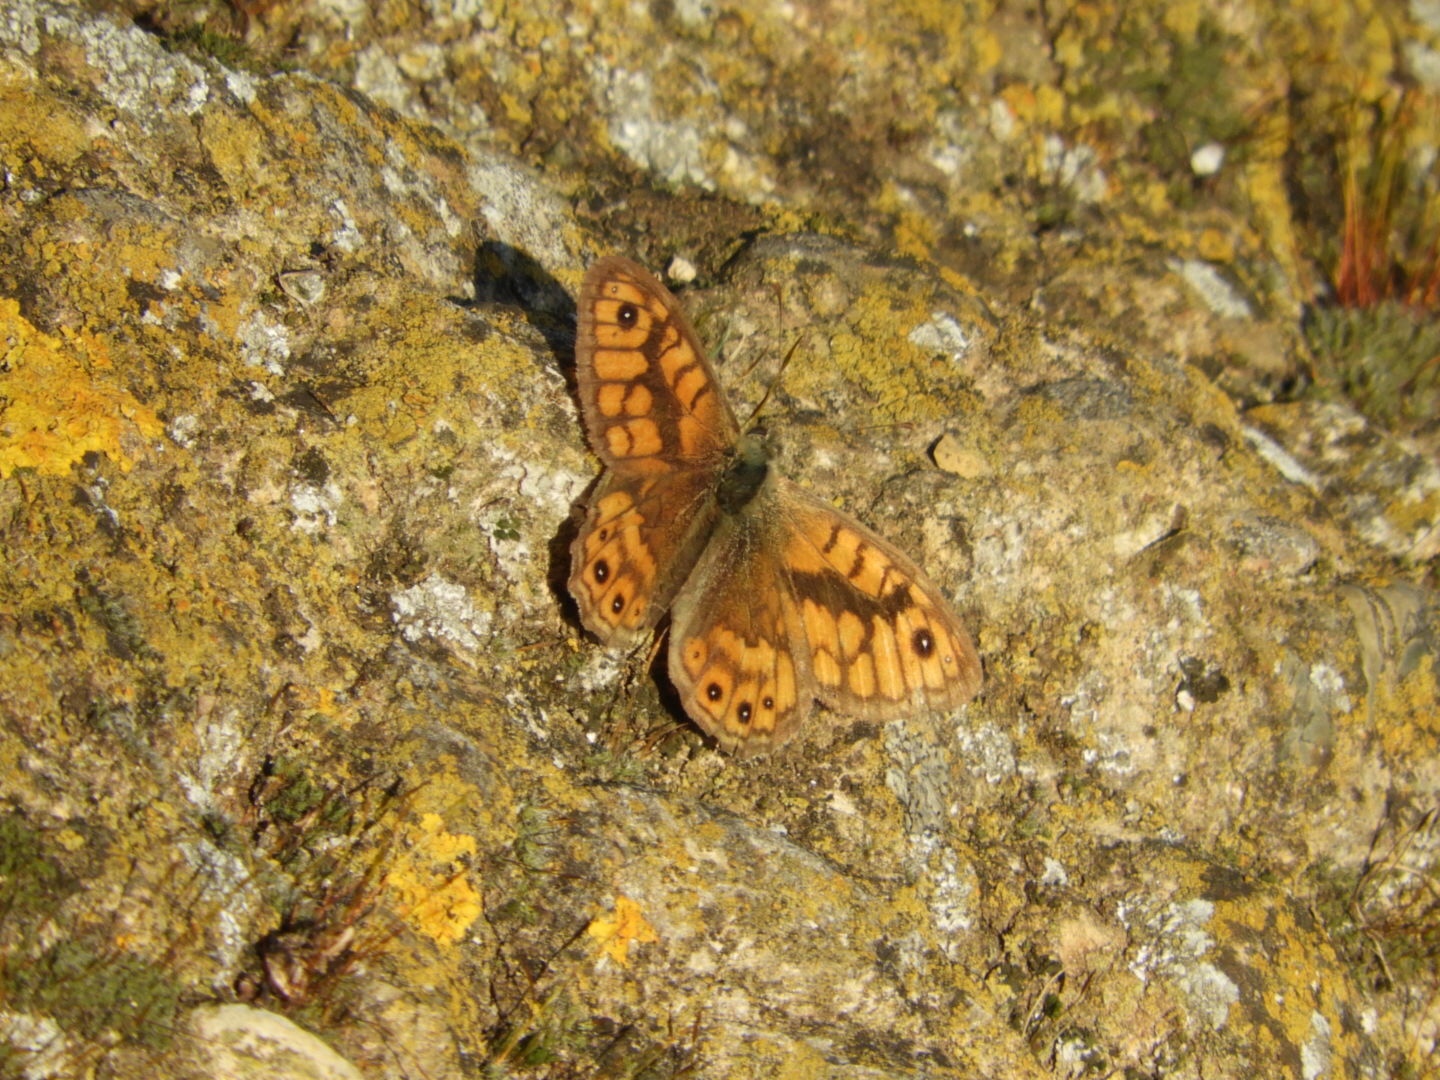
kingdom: Animalia
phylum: Arthropoda
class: Insecta
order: Lepidoptera
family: Nymphalidae
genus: Pararge
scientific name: Pararge Lasiommata megera
